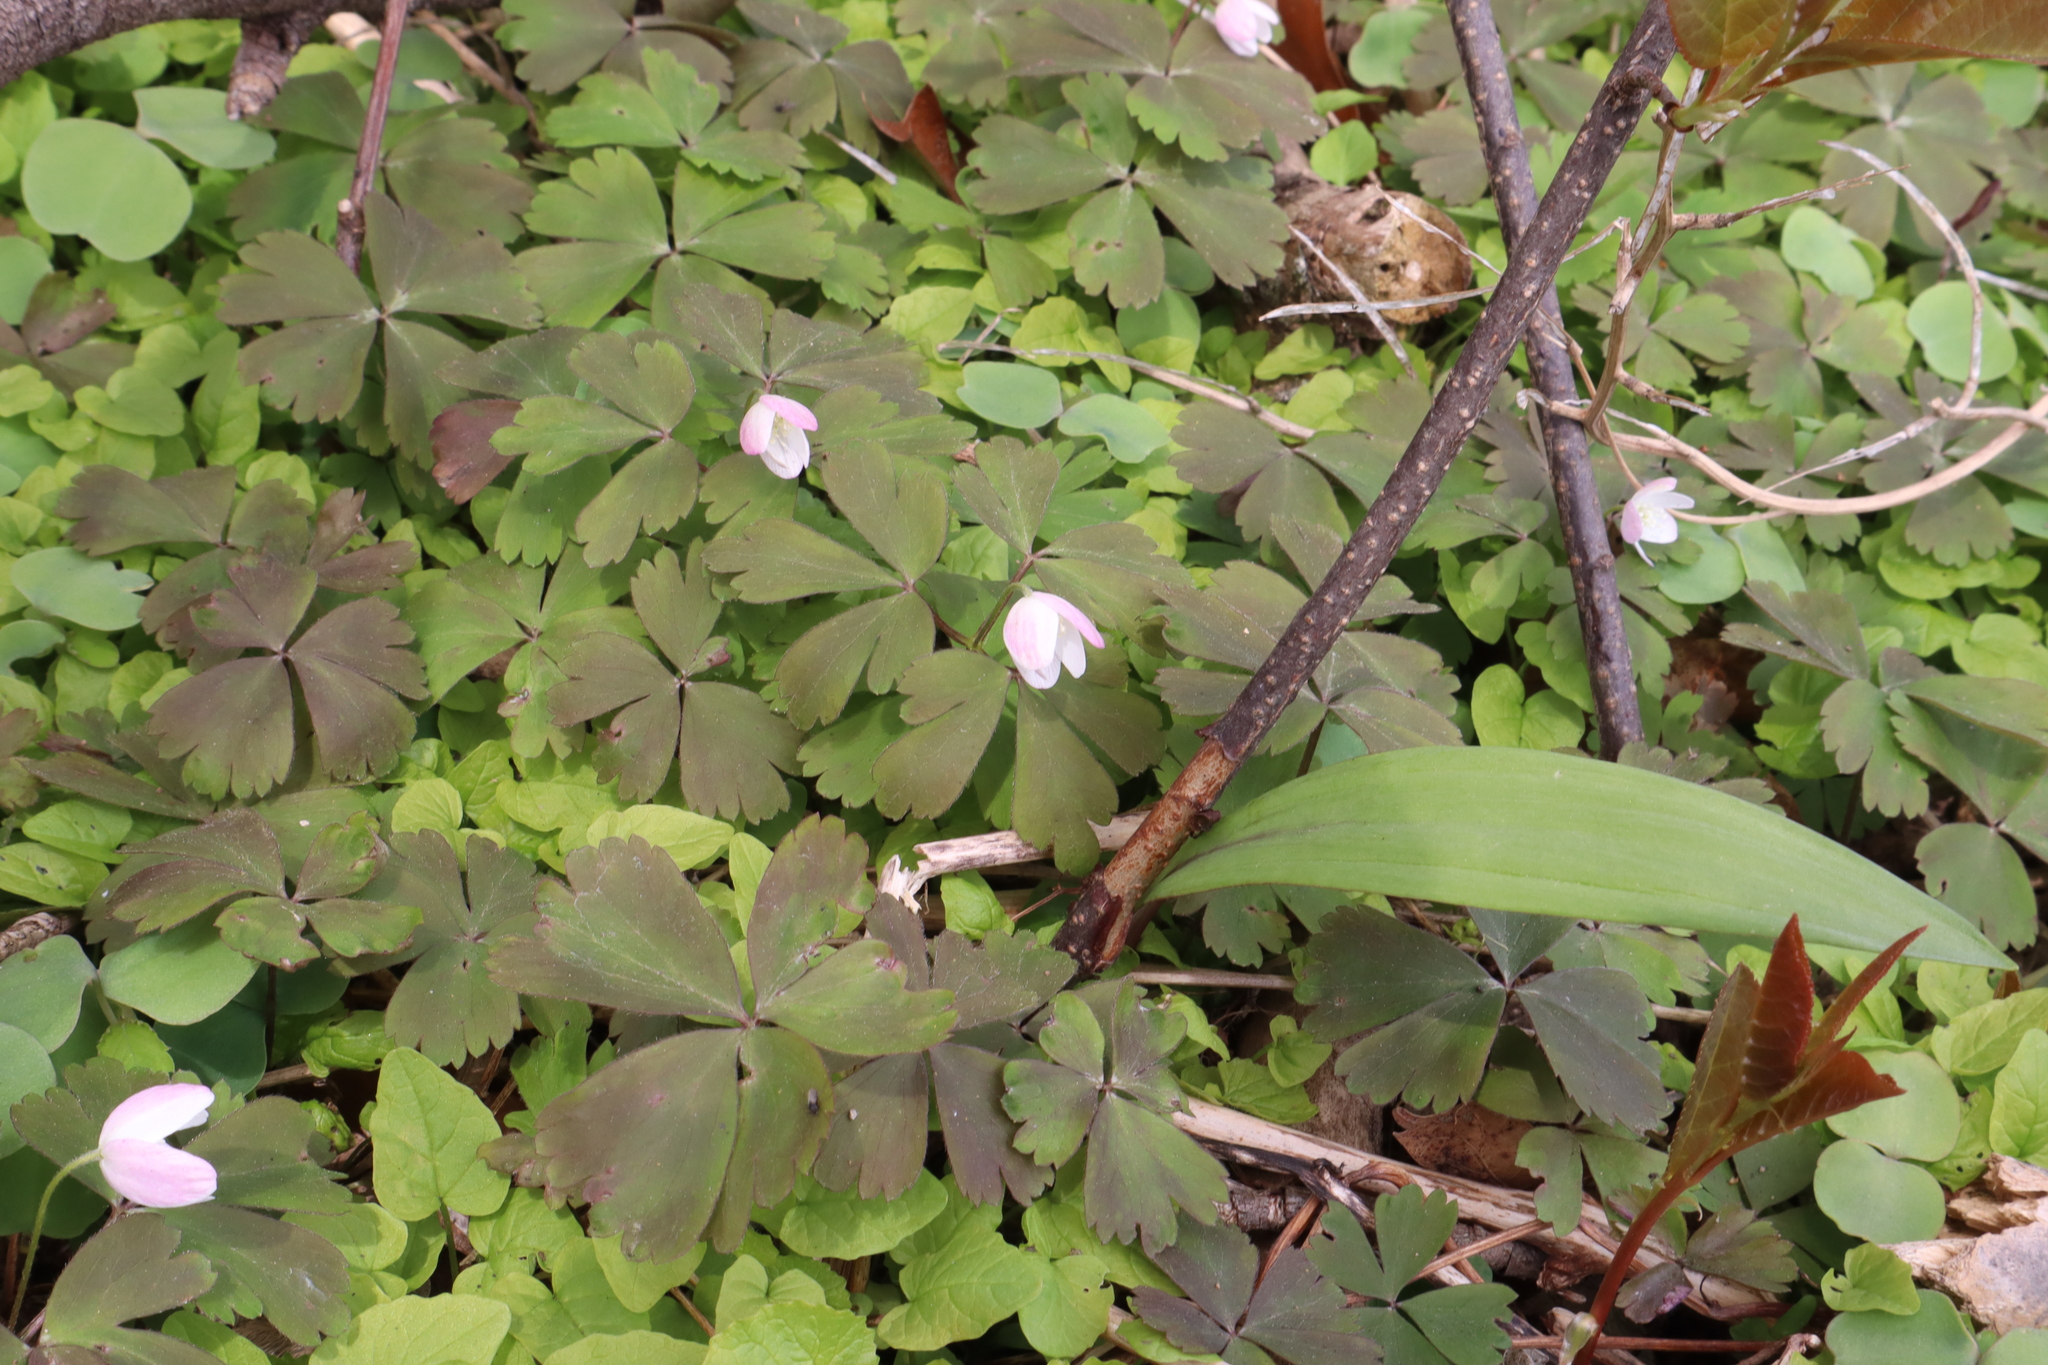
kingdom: Plantae
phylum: Tracheophyta
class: Magnoliopsida
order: Ranunculales
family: Ranunculaceae
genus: Anemone
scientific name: Anemone quinquefolia
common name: Wood anemone
